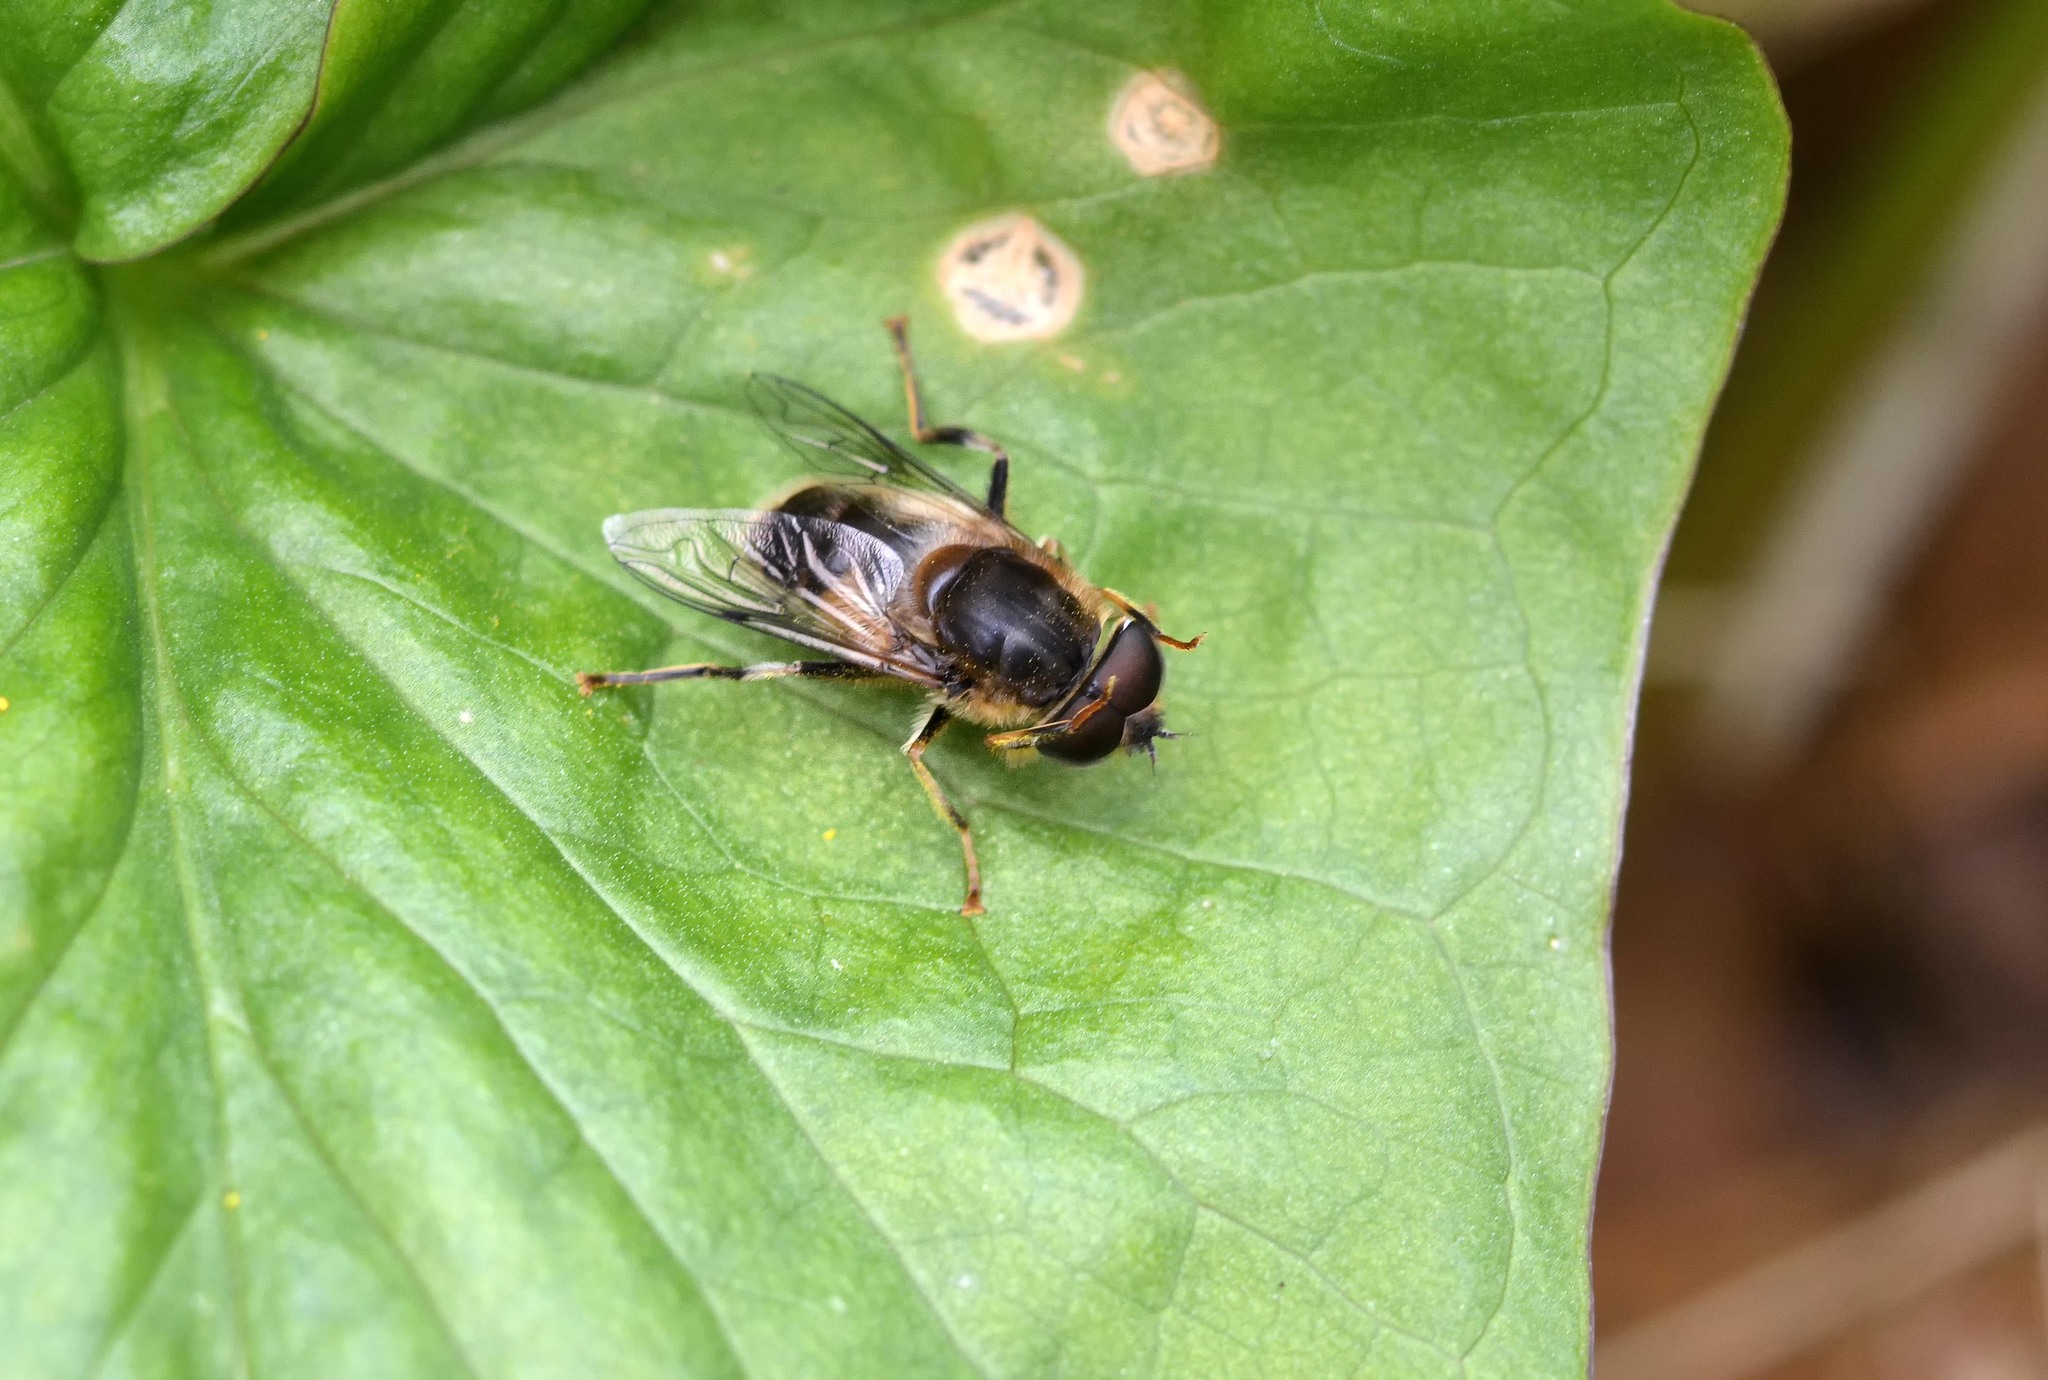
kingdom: Animalia
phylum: Arthropoda
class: Insecta
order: Diptera
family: Syrphidae
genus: Eristalis
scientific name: Eristalis pertinax
